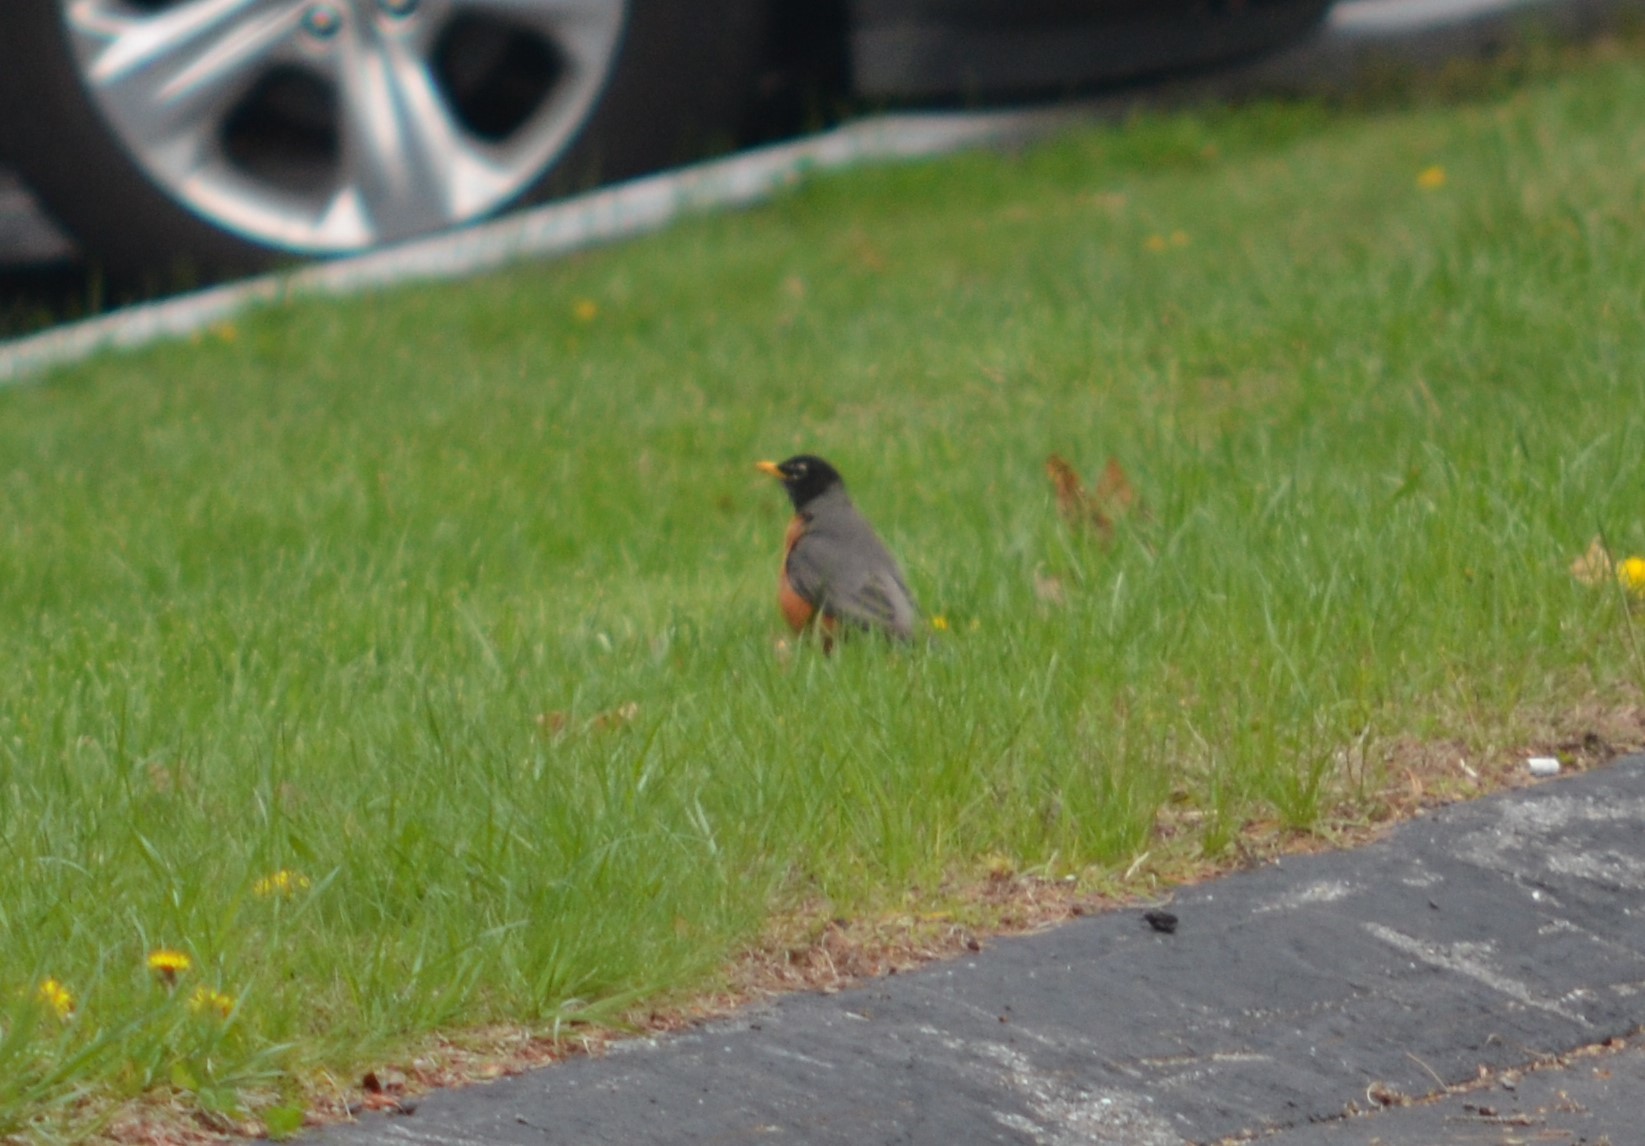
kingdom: Animalia
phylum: Chordata
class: Aves
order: Passeriformes
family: Turdidae
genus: Turdus
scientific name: Turdus migratorius
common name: American robin
